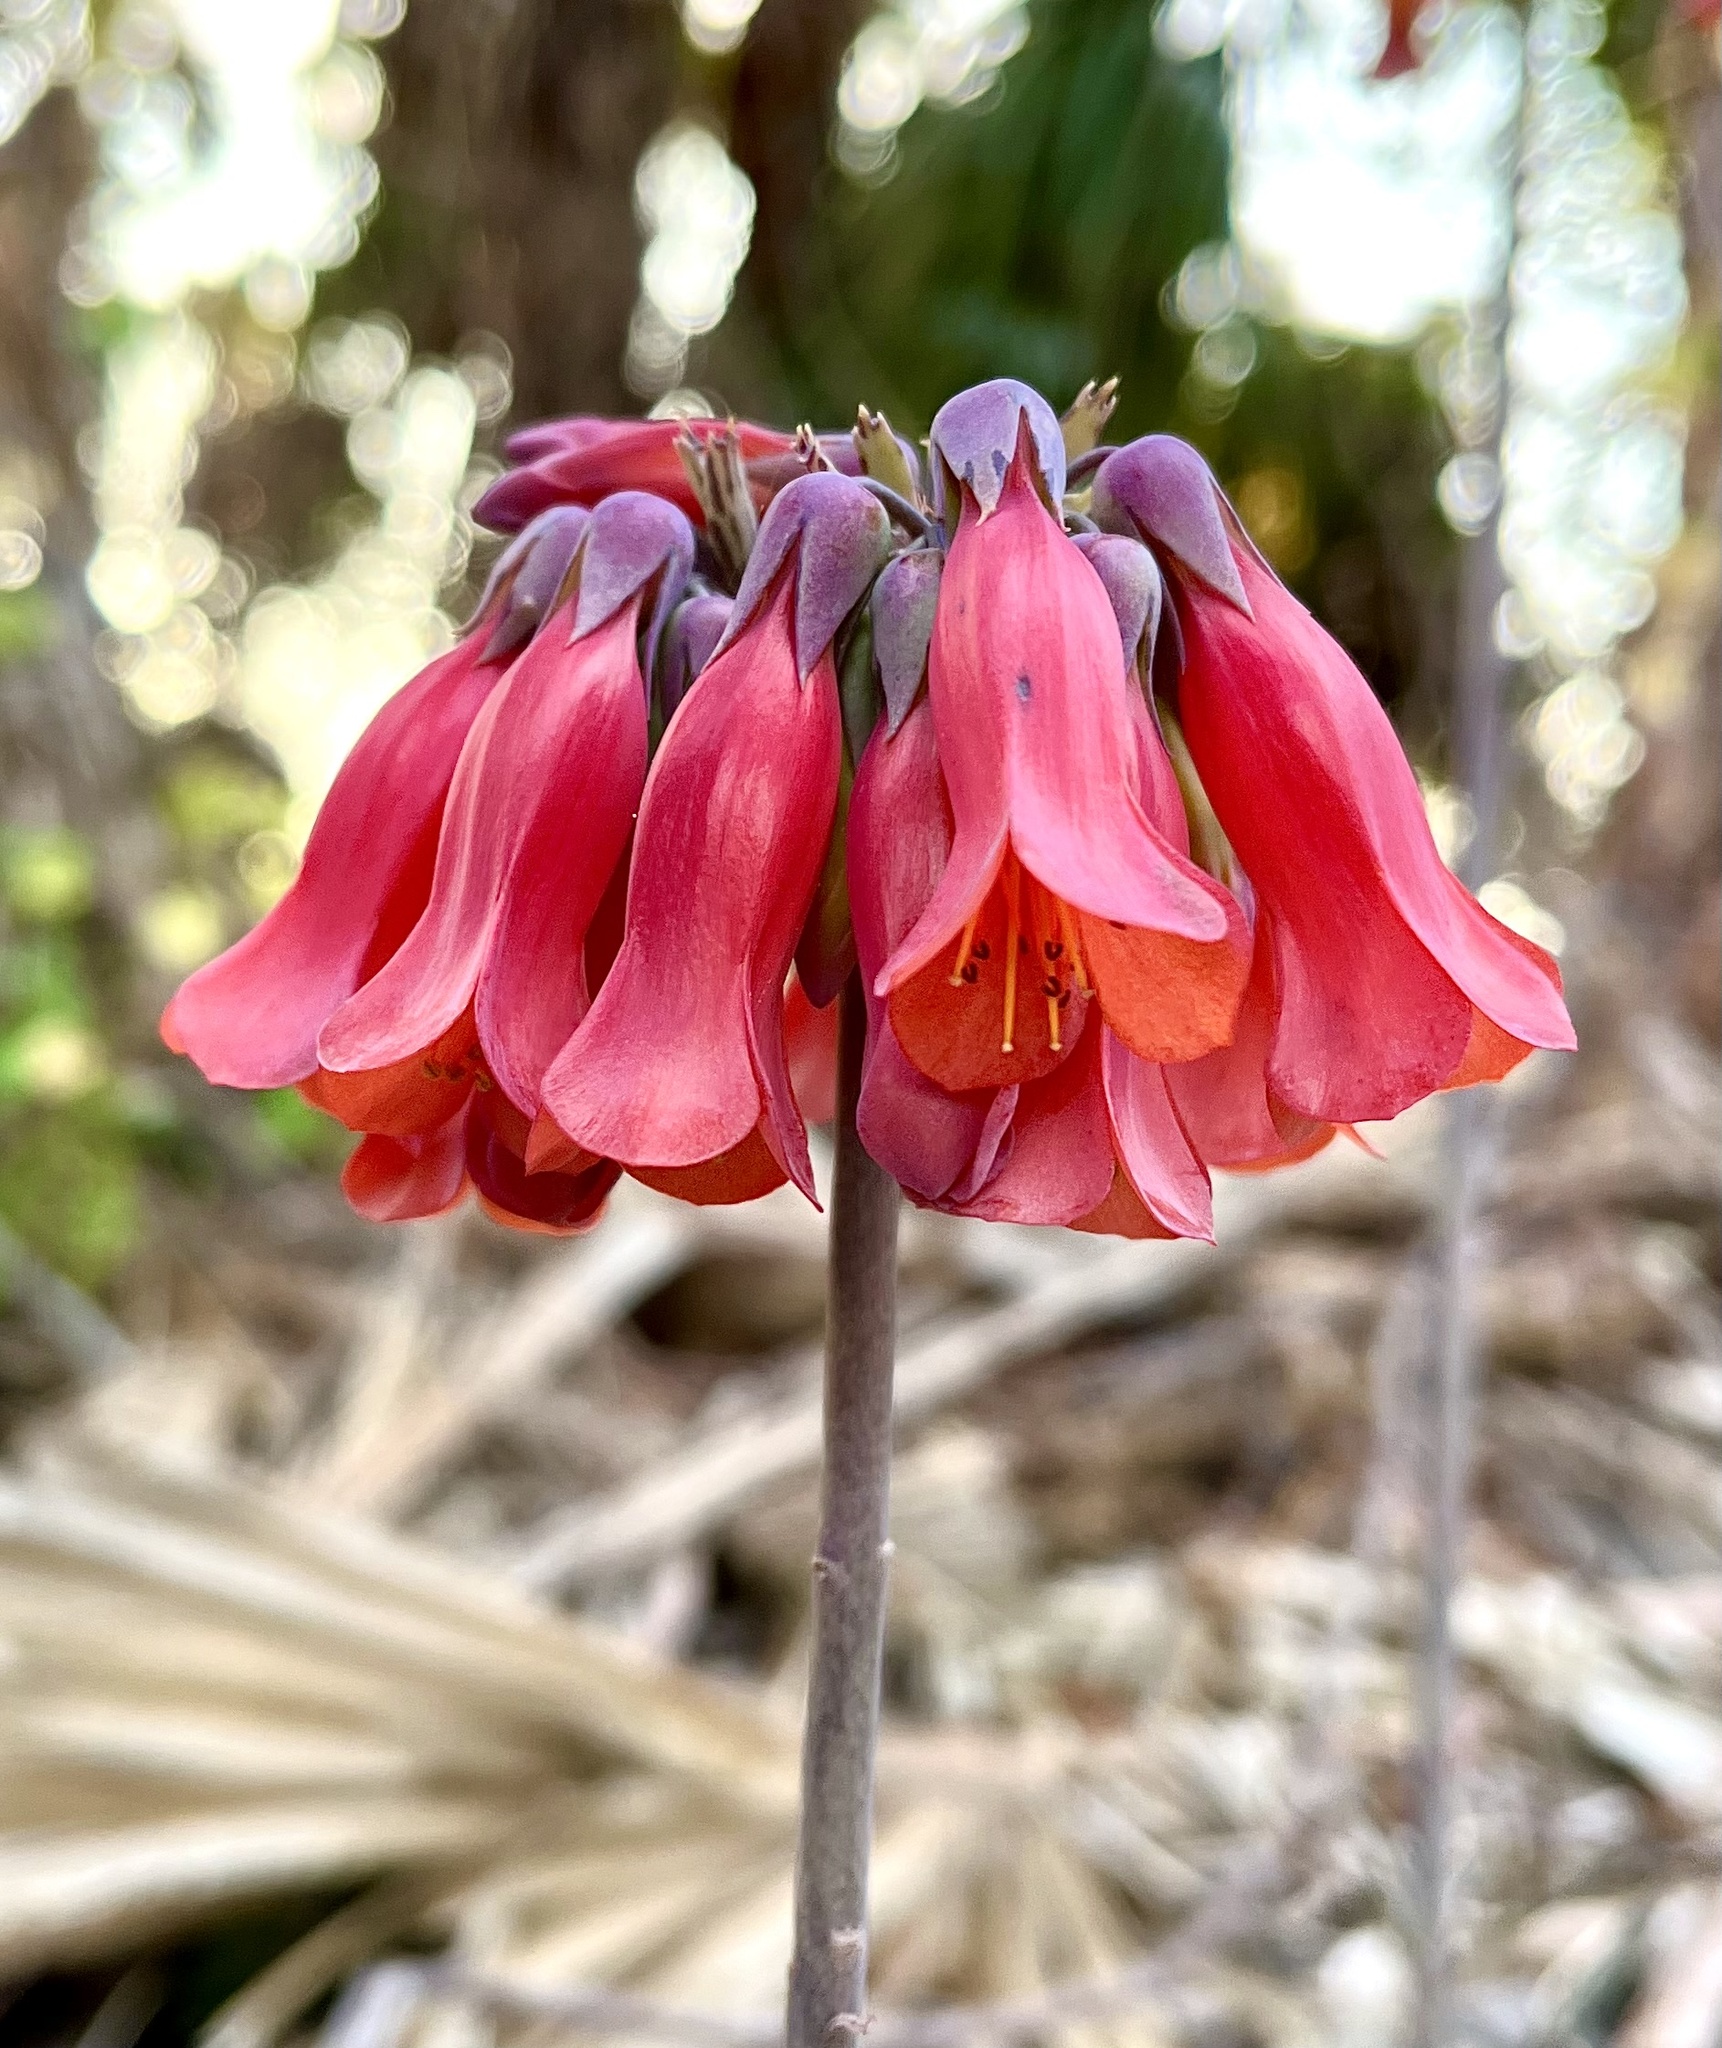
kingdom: Plantae
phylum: Tracheophyta
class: Magnoliopsida
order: Saxifragales
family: Crassulaceae
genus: Kalanchoe
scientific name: Kalanchoe delagoensis
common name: Chandelier plant
